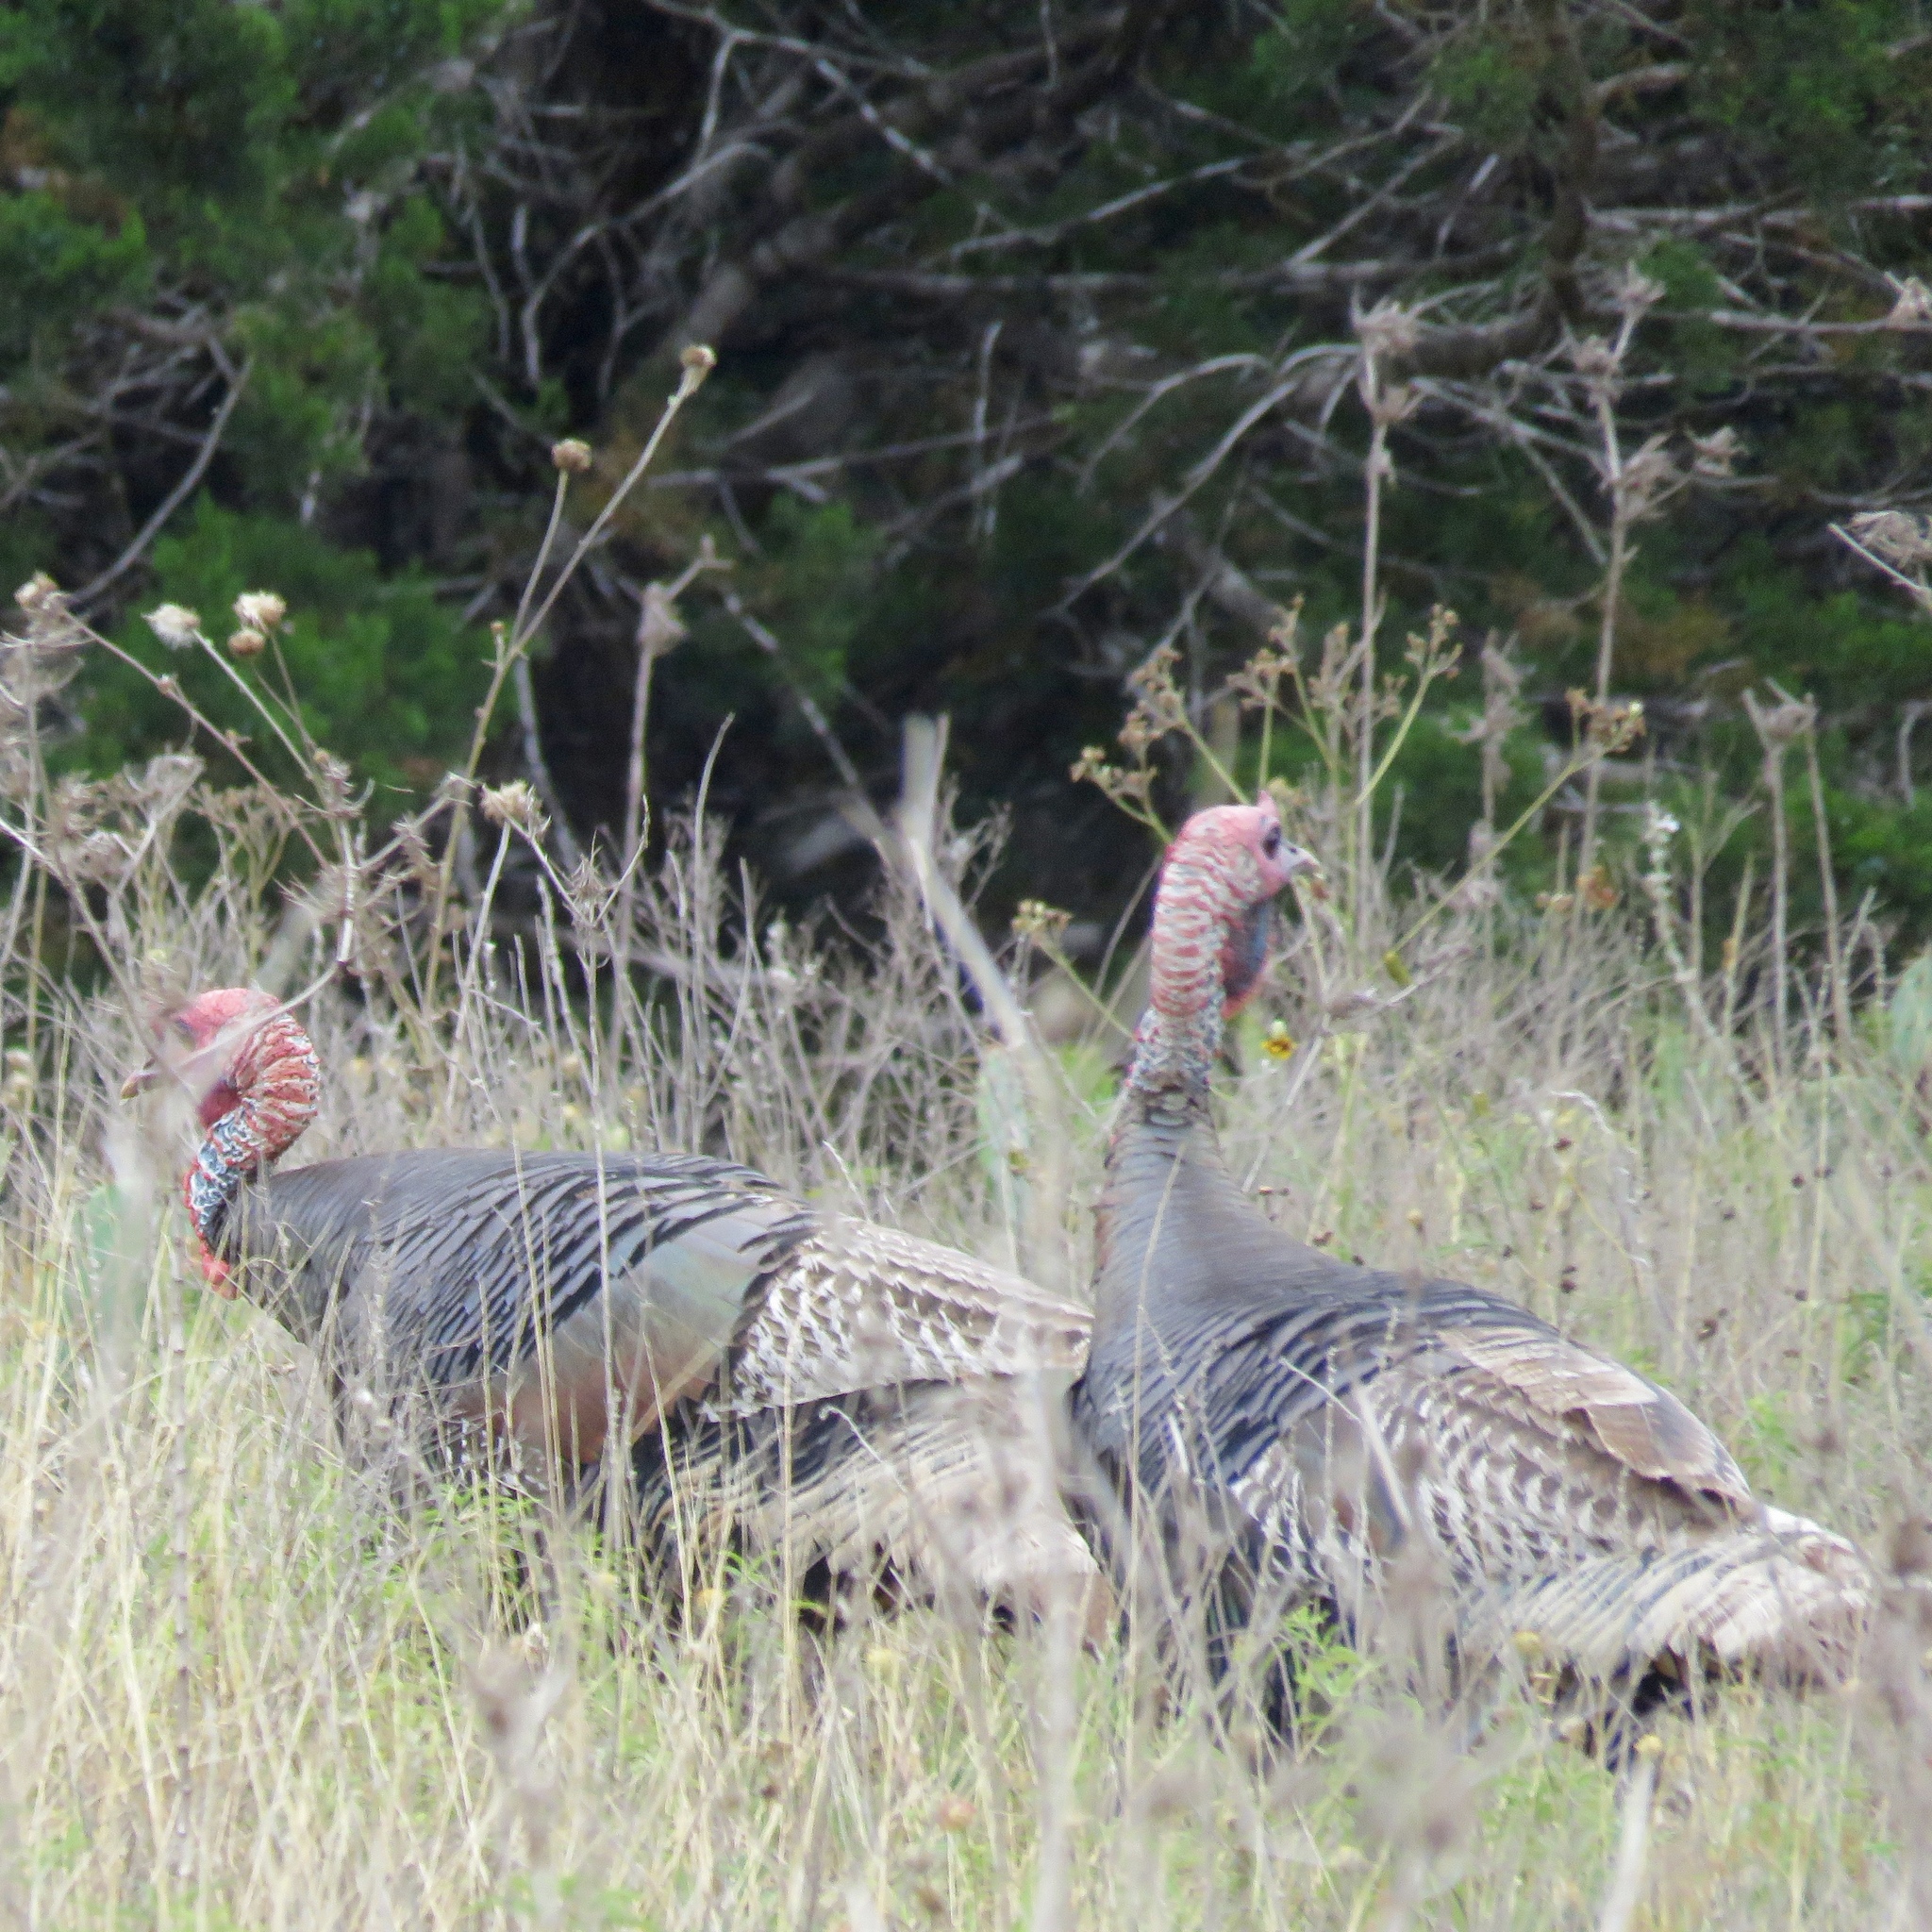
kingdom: Animalia
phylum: Chordata
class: Aves
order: Galliformes
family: Phasianidae
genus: Meleagris
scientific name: Meleagris gallopavo
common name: Wild turkey
